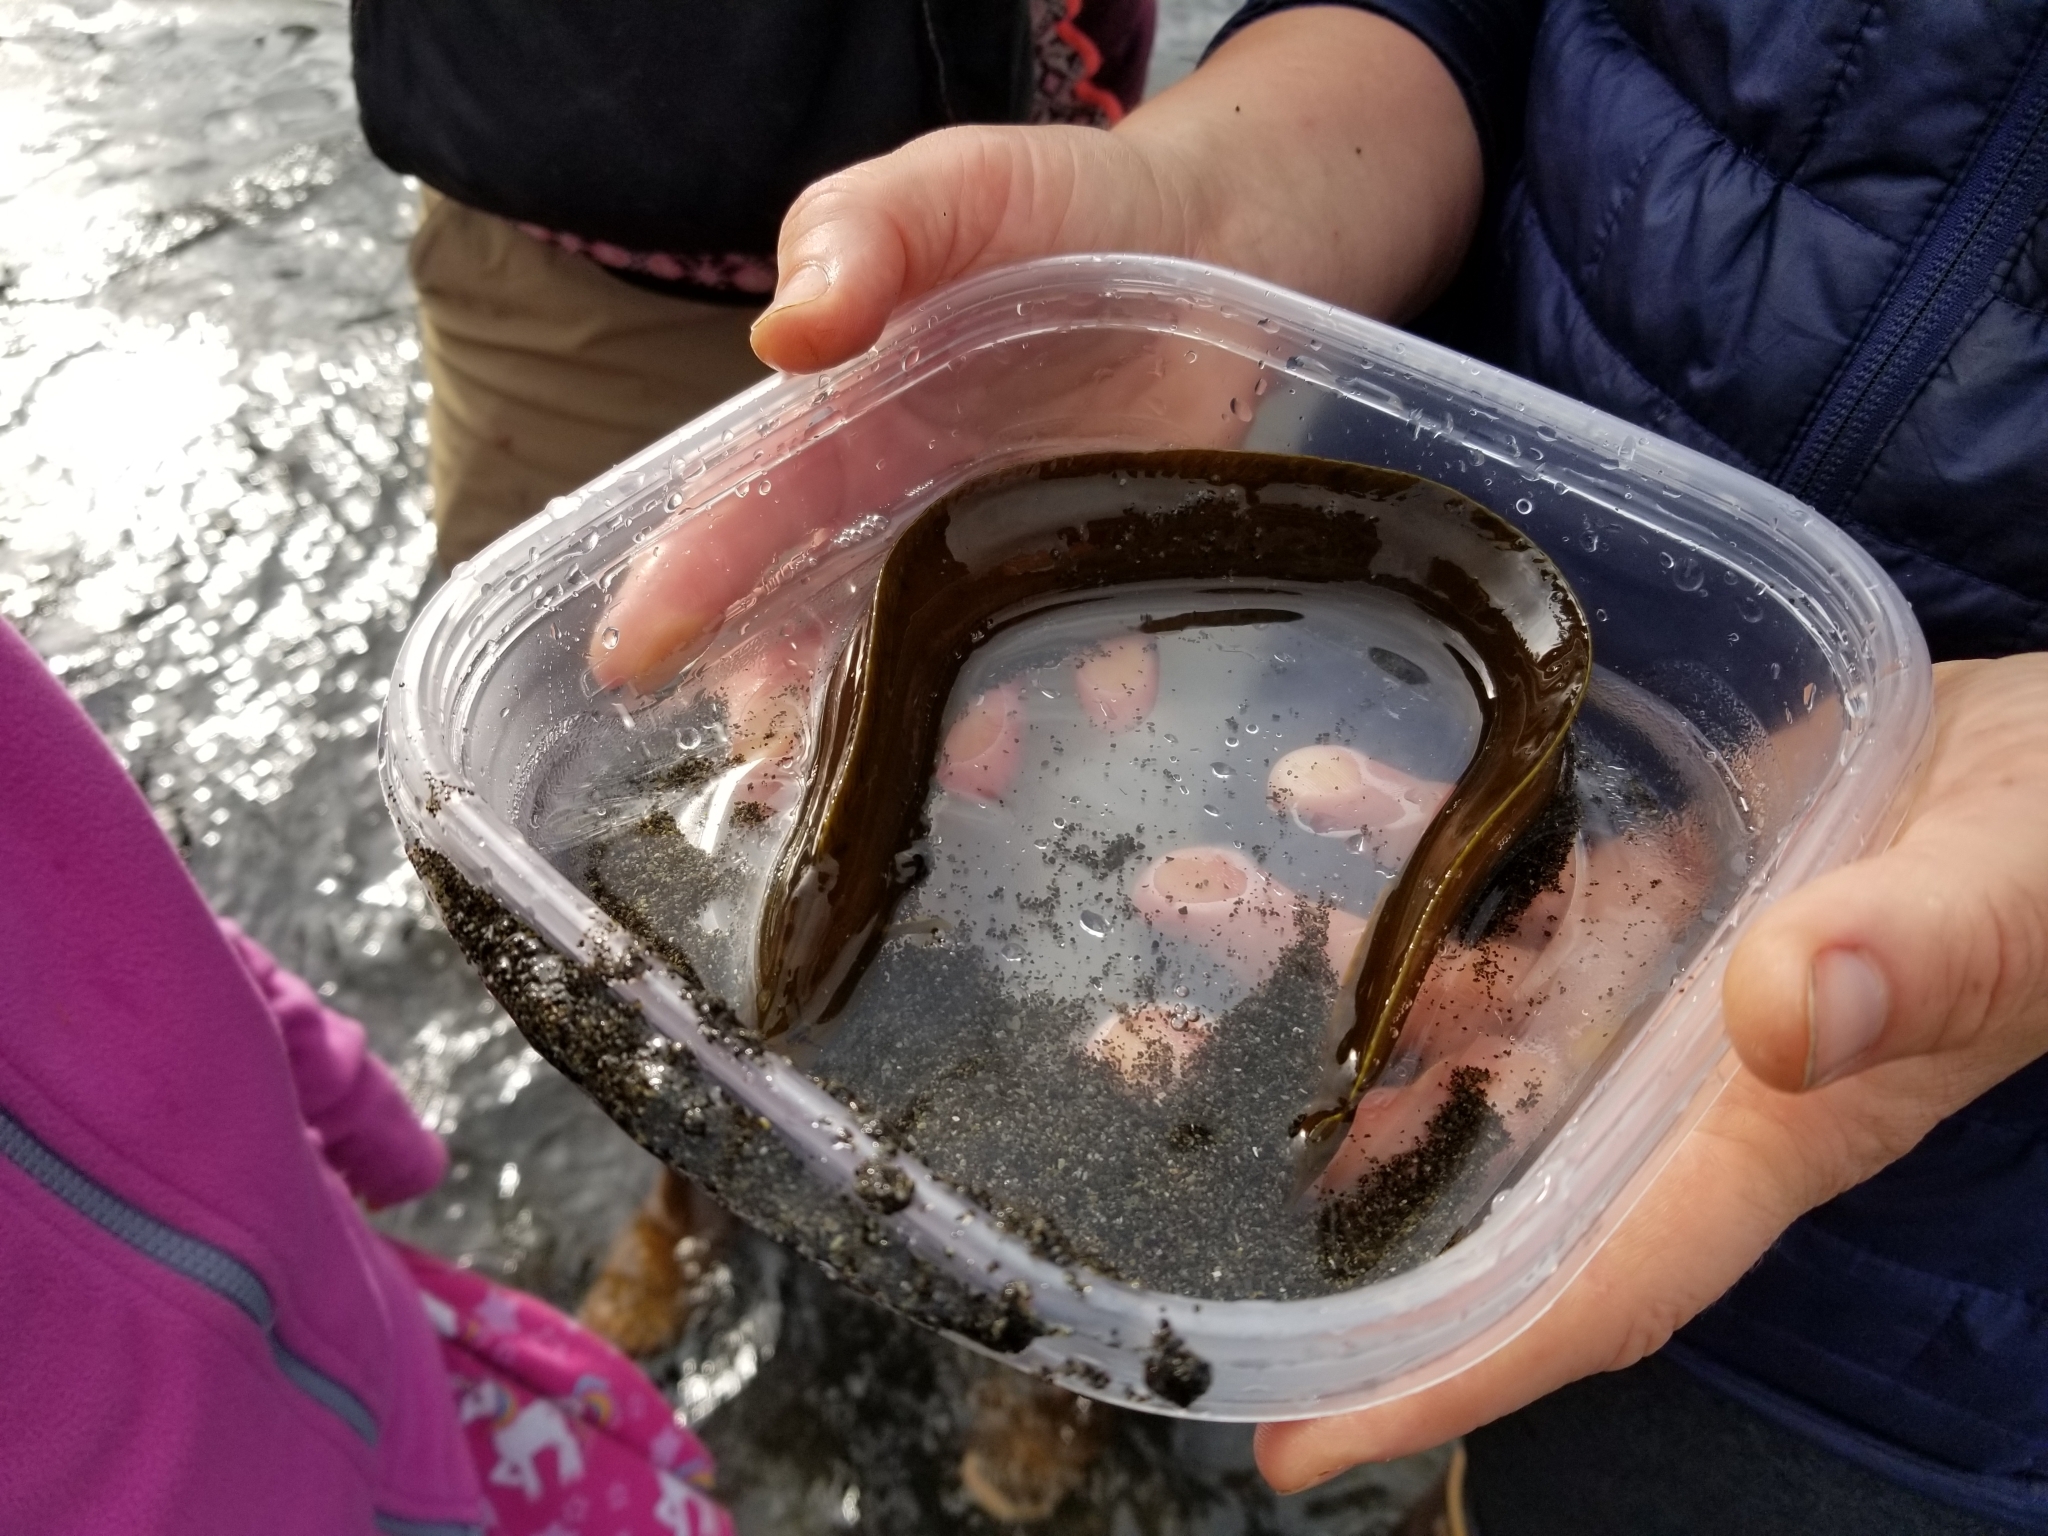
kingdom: Animalia
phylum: Chordata
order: Perciformes
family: Pholidae
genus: Apodichthys
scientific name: Apodichthys flavidus
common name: Penpoint gunnel
